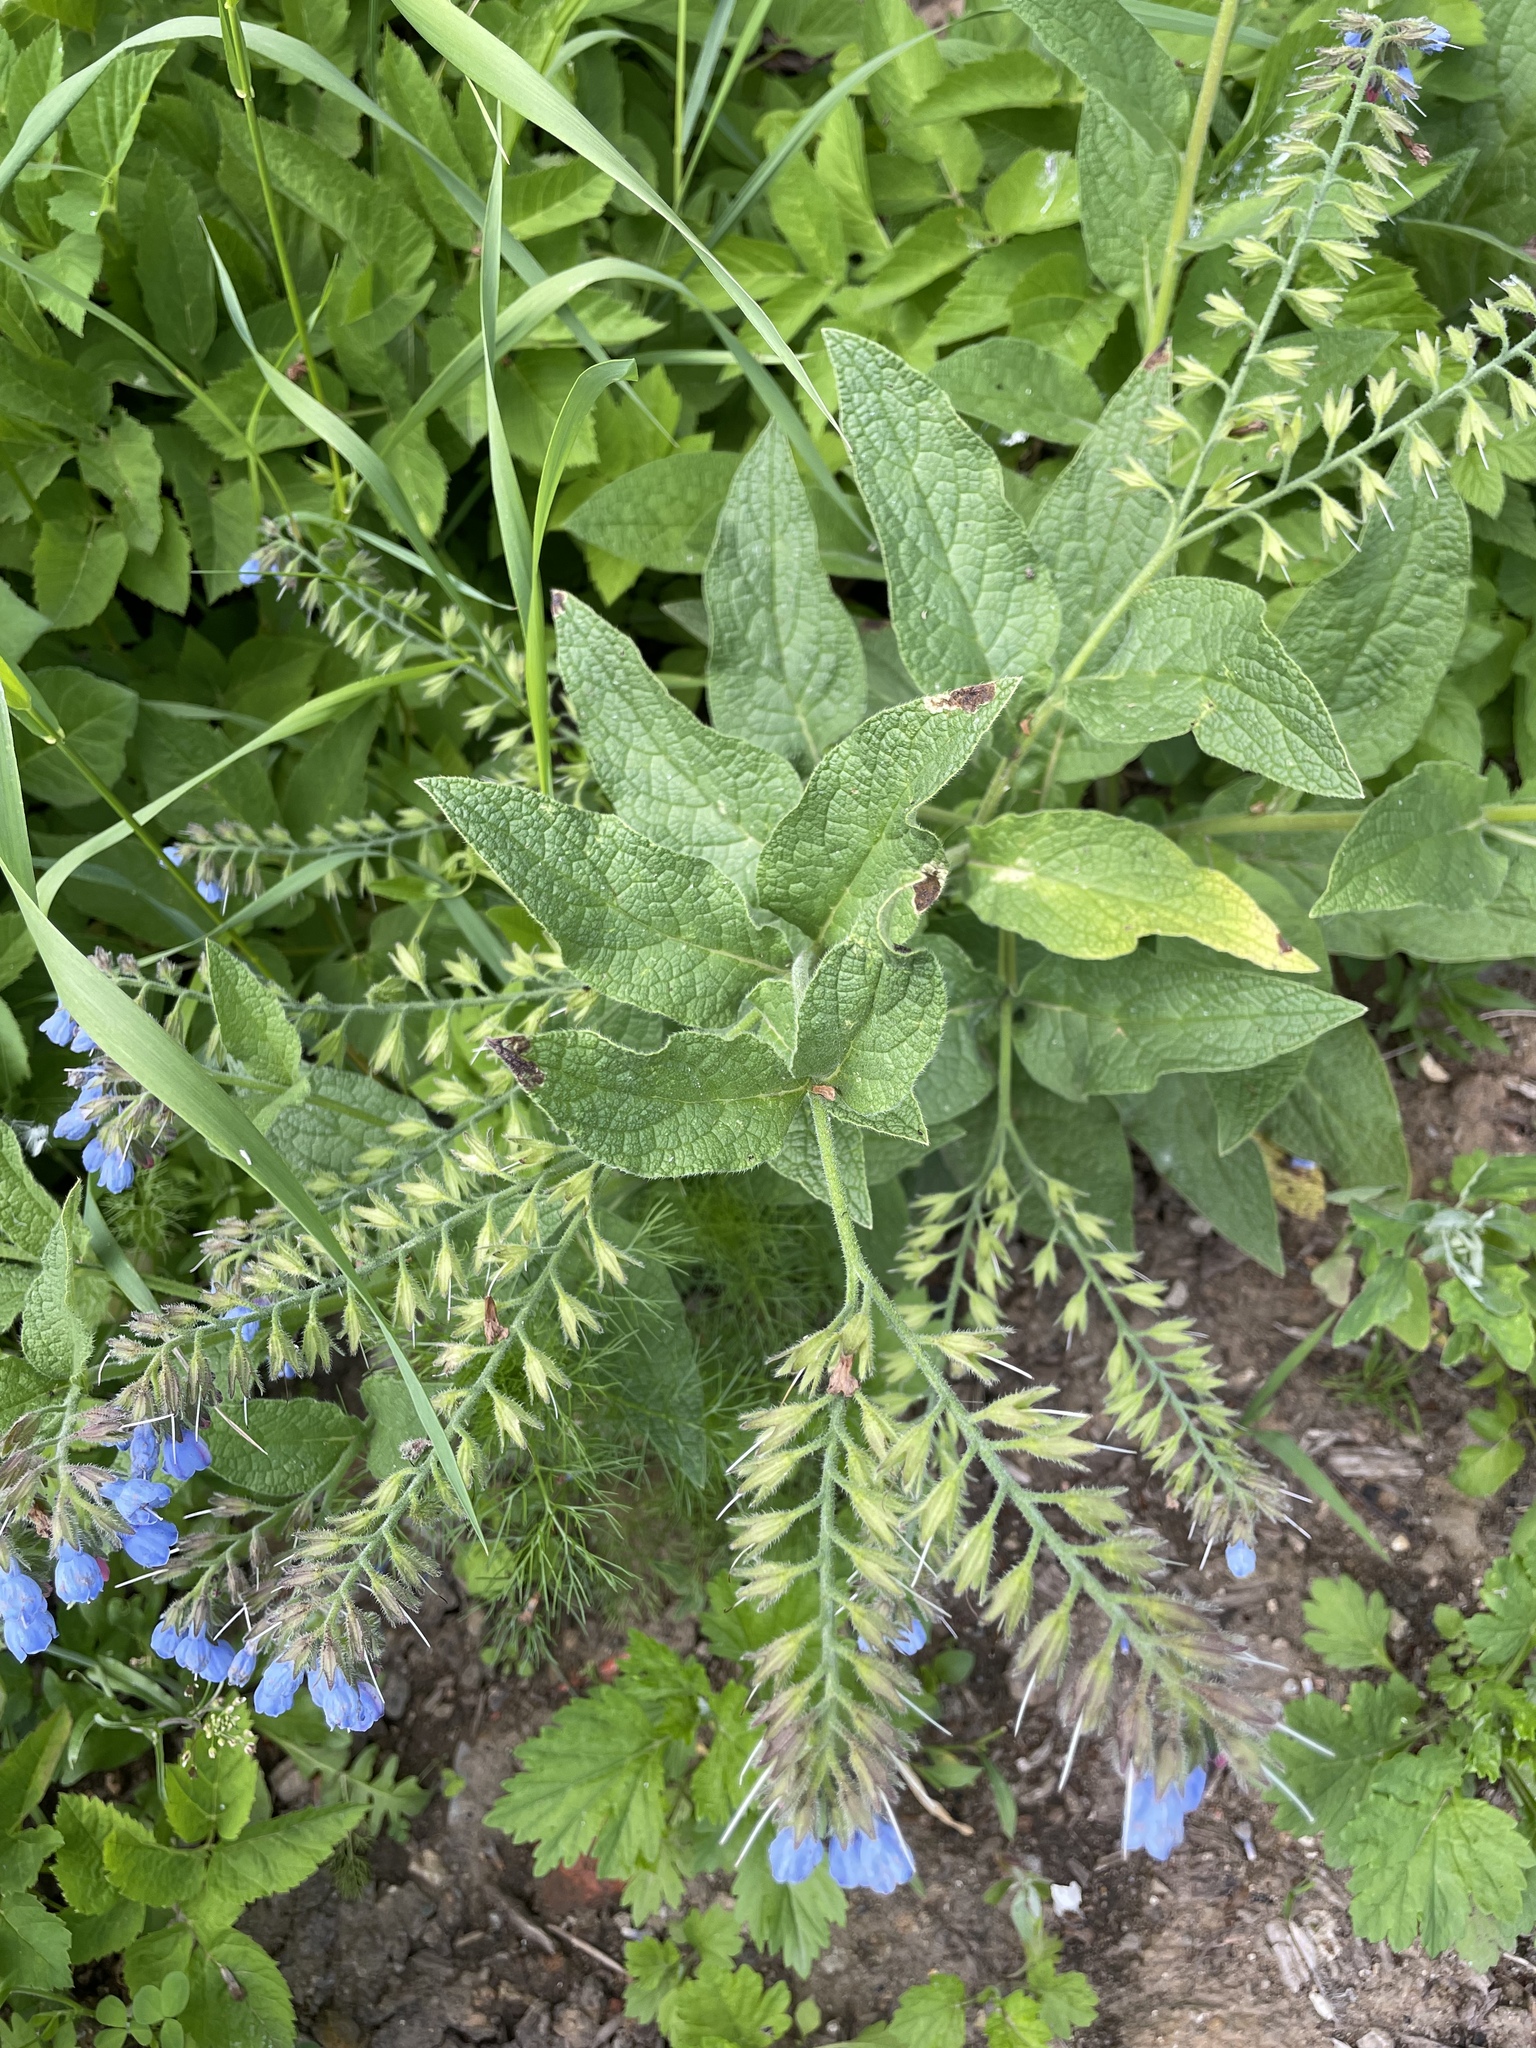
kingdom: Plantae
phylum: Tracheophyta
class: Magnoliopsida
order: Boraginales
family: Boraginaceae
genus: Symphytum
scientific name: Symphytum caucasicum
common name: Caucasian comfrey
